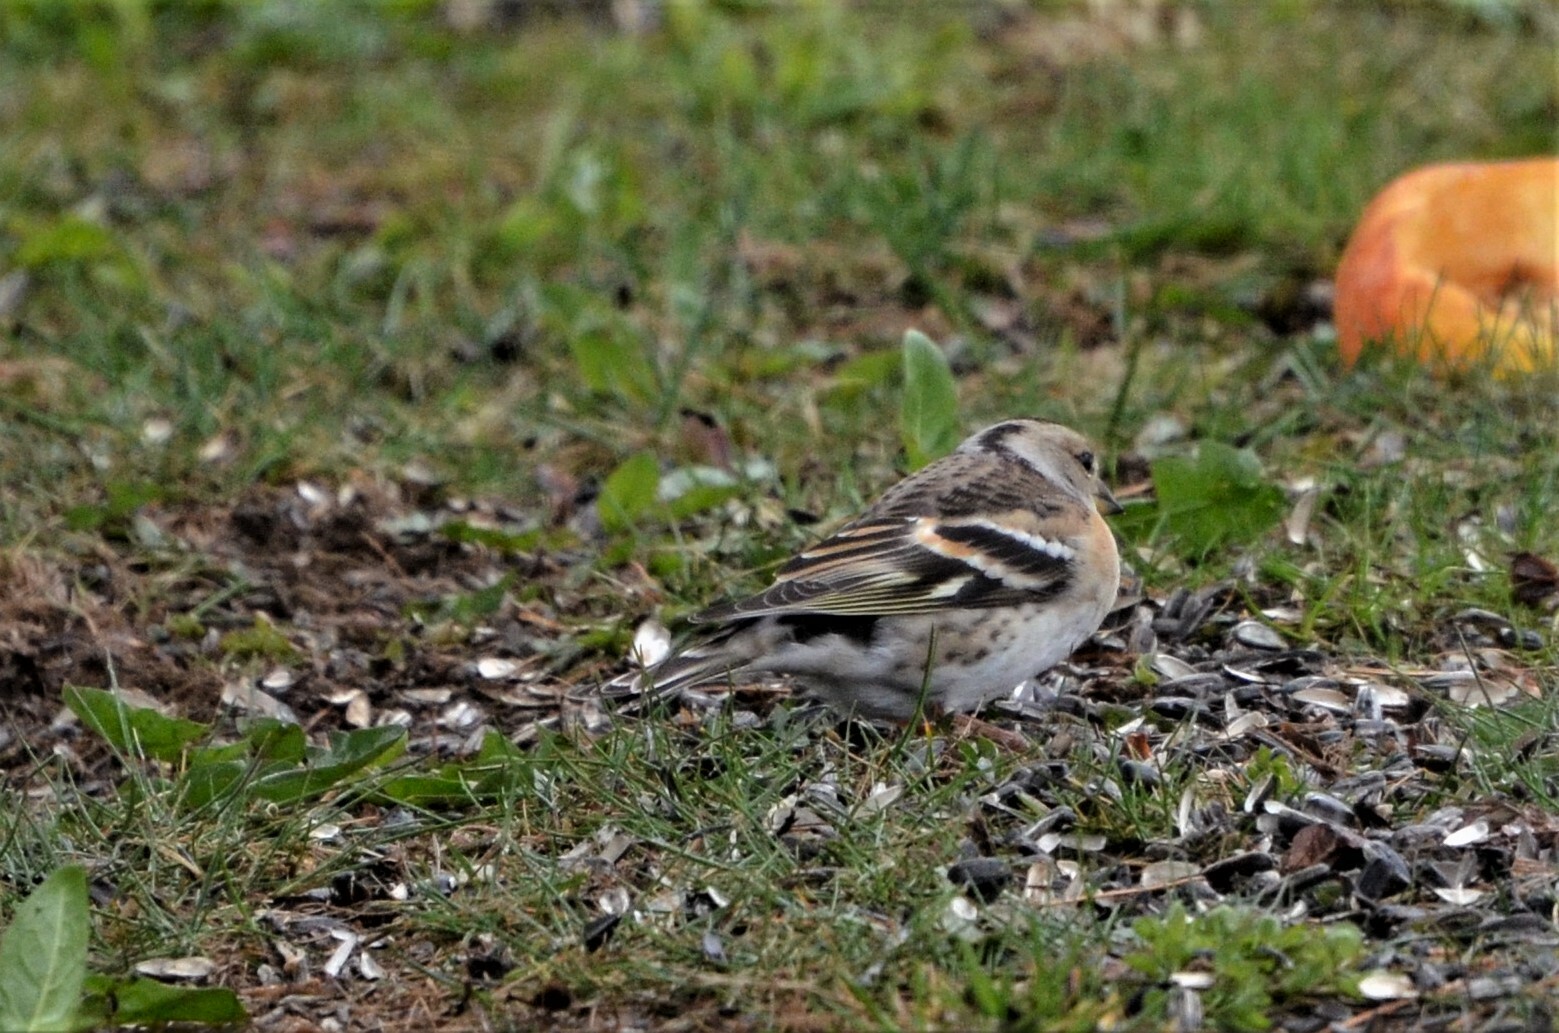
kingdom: Animalia
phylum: Chordata
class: Aves
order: Passeriformes
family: Fringillidae
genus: Fringilla
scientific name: Fringilla montifringilla
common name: Brambling
